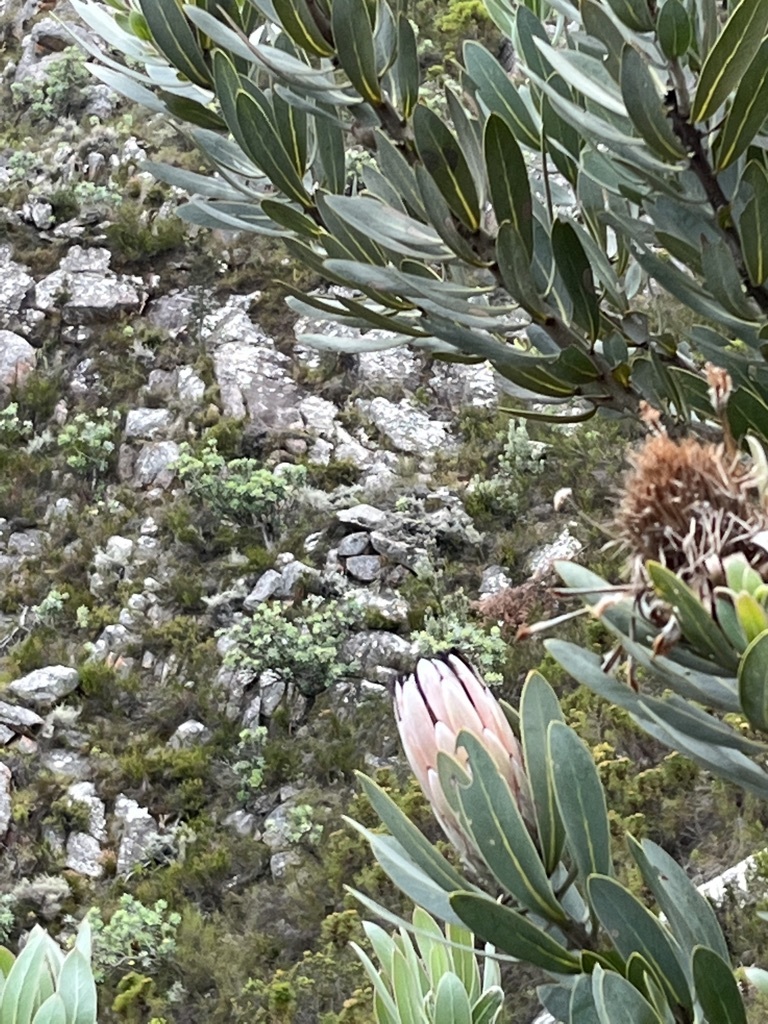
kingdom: Plantae
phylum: Tracheophyta
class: Magnoliopsida
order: Proteales
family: Proteaceae
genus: Protea
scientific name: Protea laurifolia
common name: Grey-leaf sugarbsh
